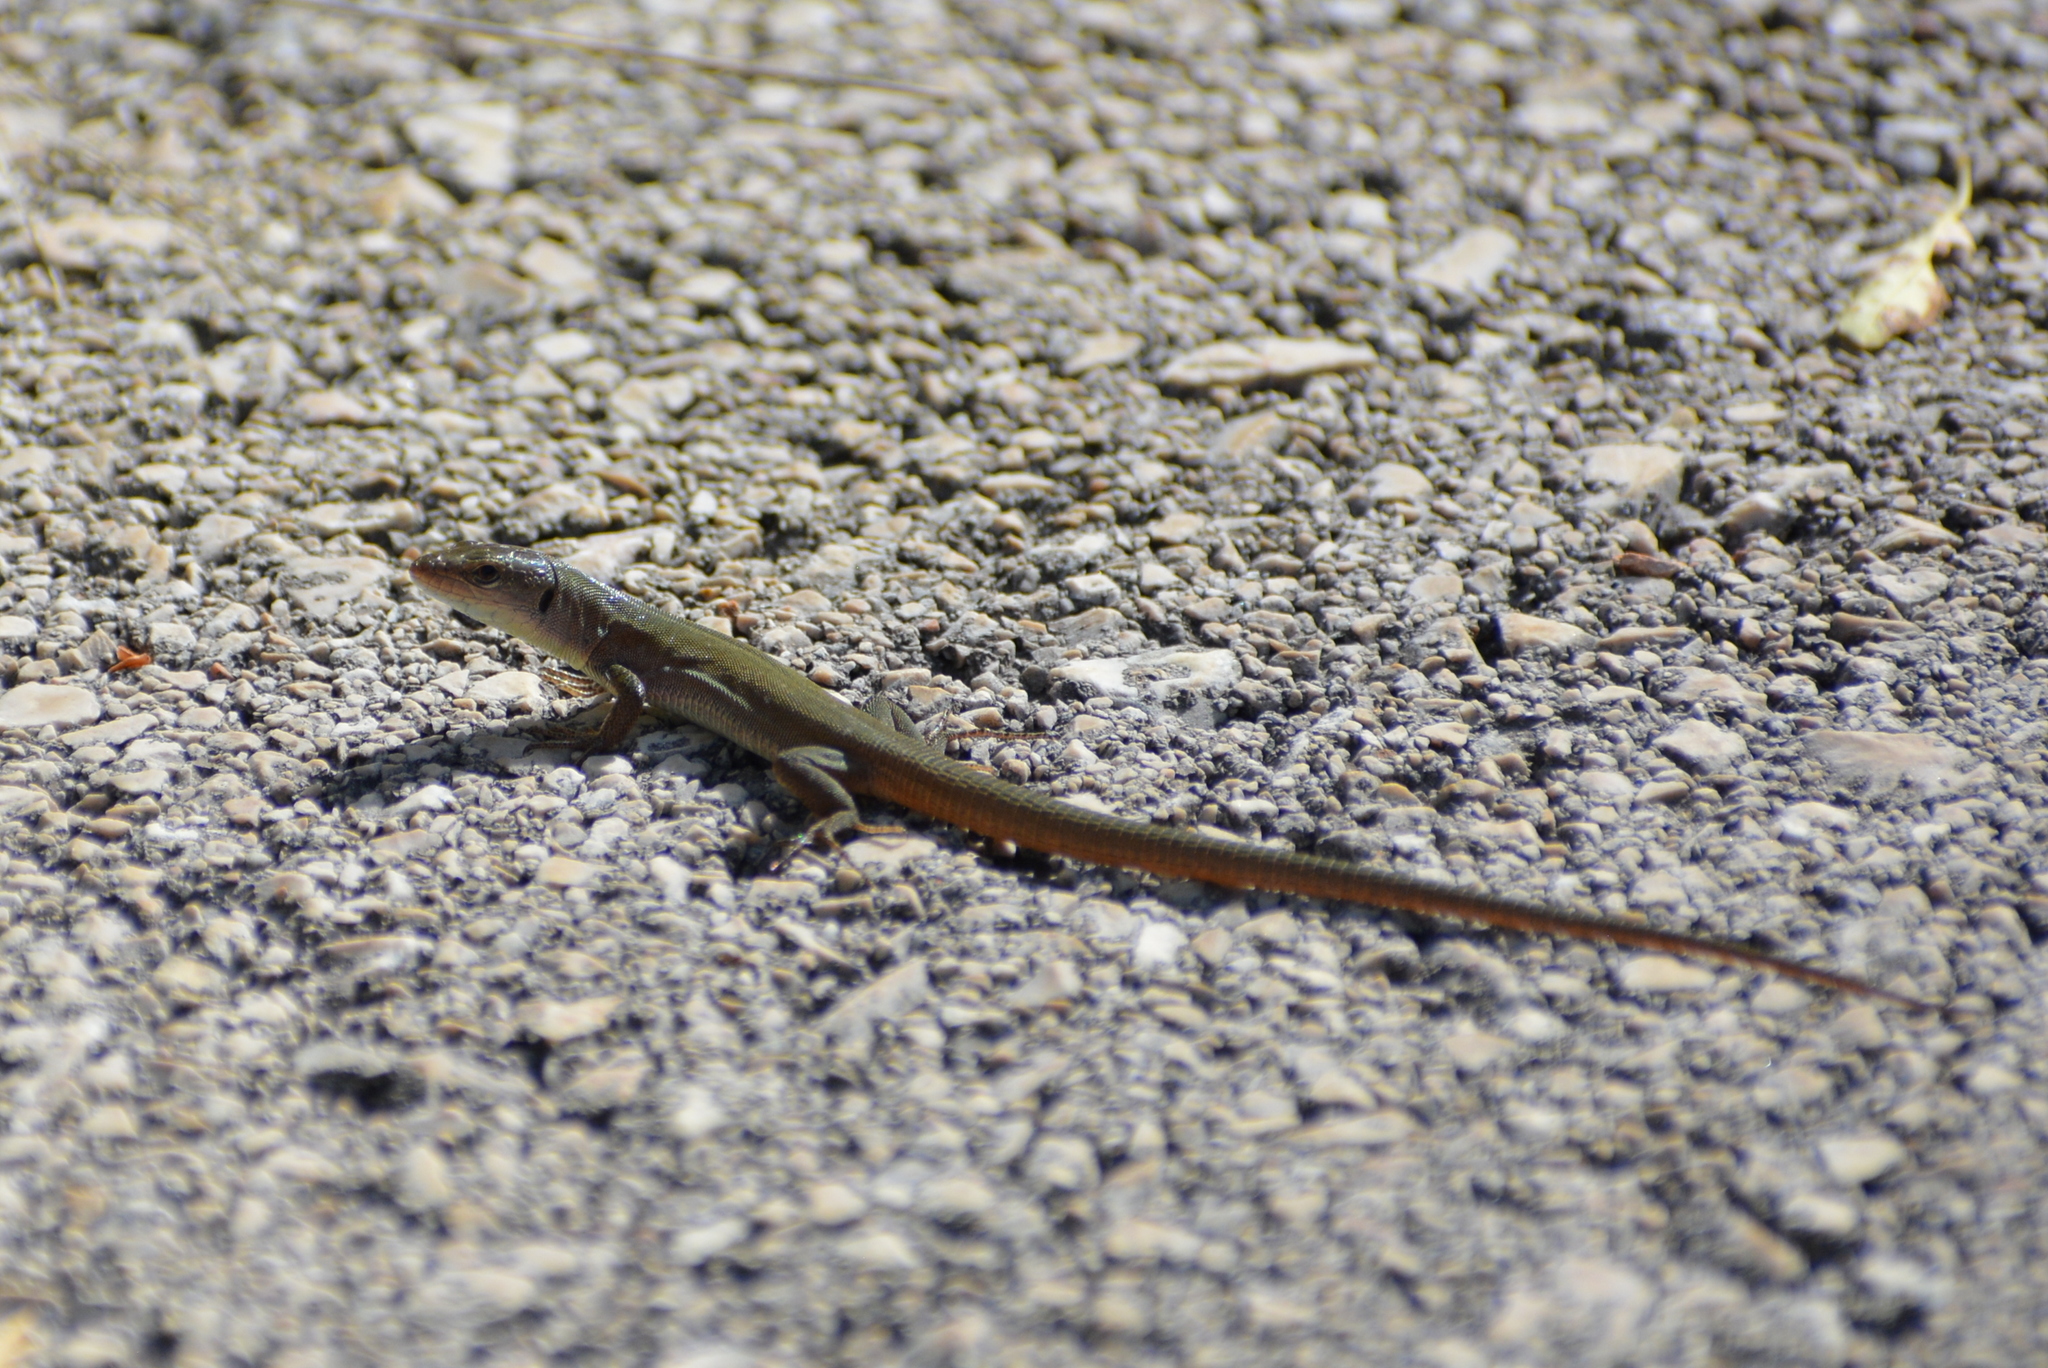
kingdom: Animalia
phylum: Chordata
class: Squamata
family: Lacertidae
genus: Podarcis
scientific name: Podarcis melisellensis
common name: Dalmatian wall lizard
